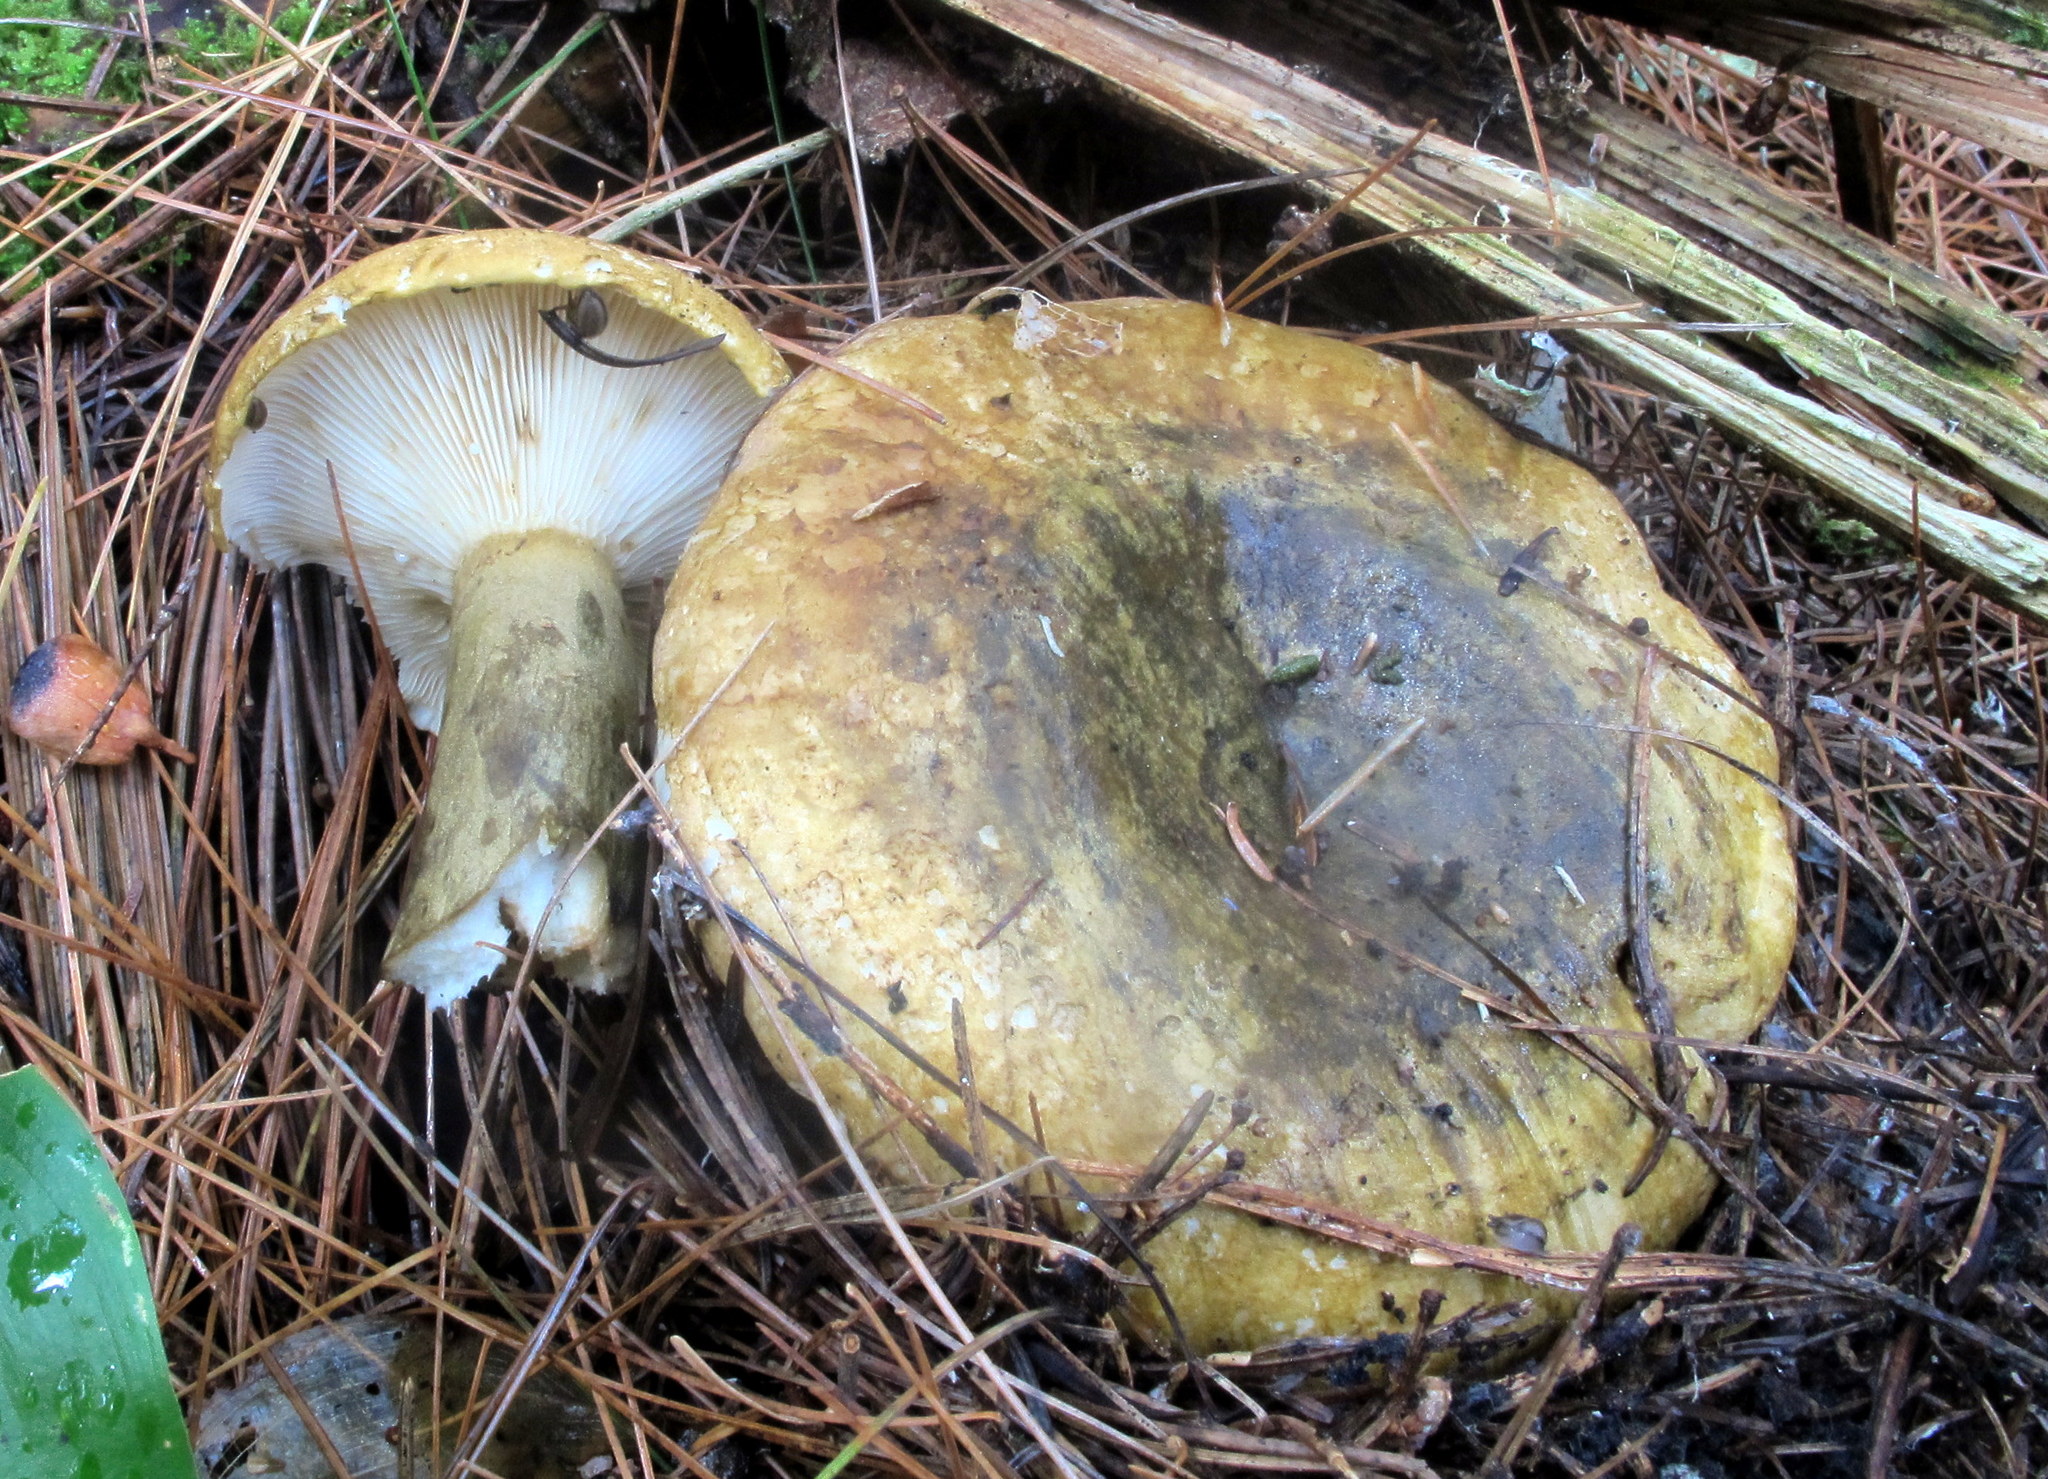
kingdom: Fungi
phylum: Basidiomycota
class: Agaricomycetes
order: Russulales
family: Russulaceae
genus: Lactarius
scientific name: Lactarius sordidus
